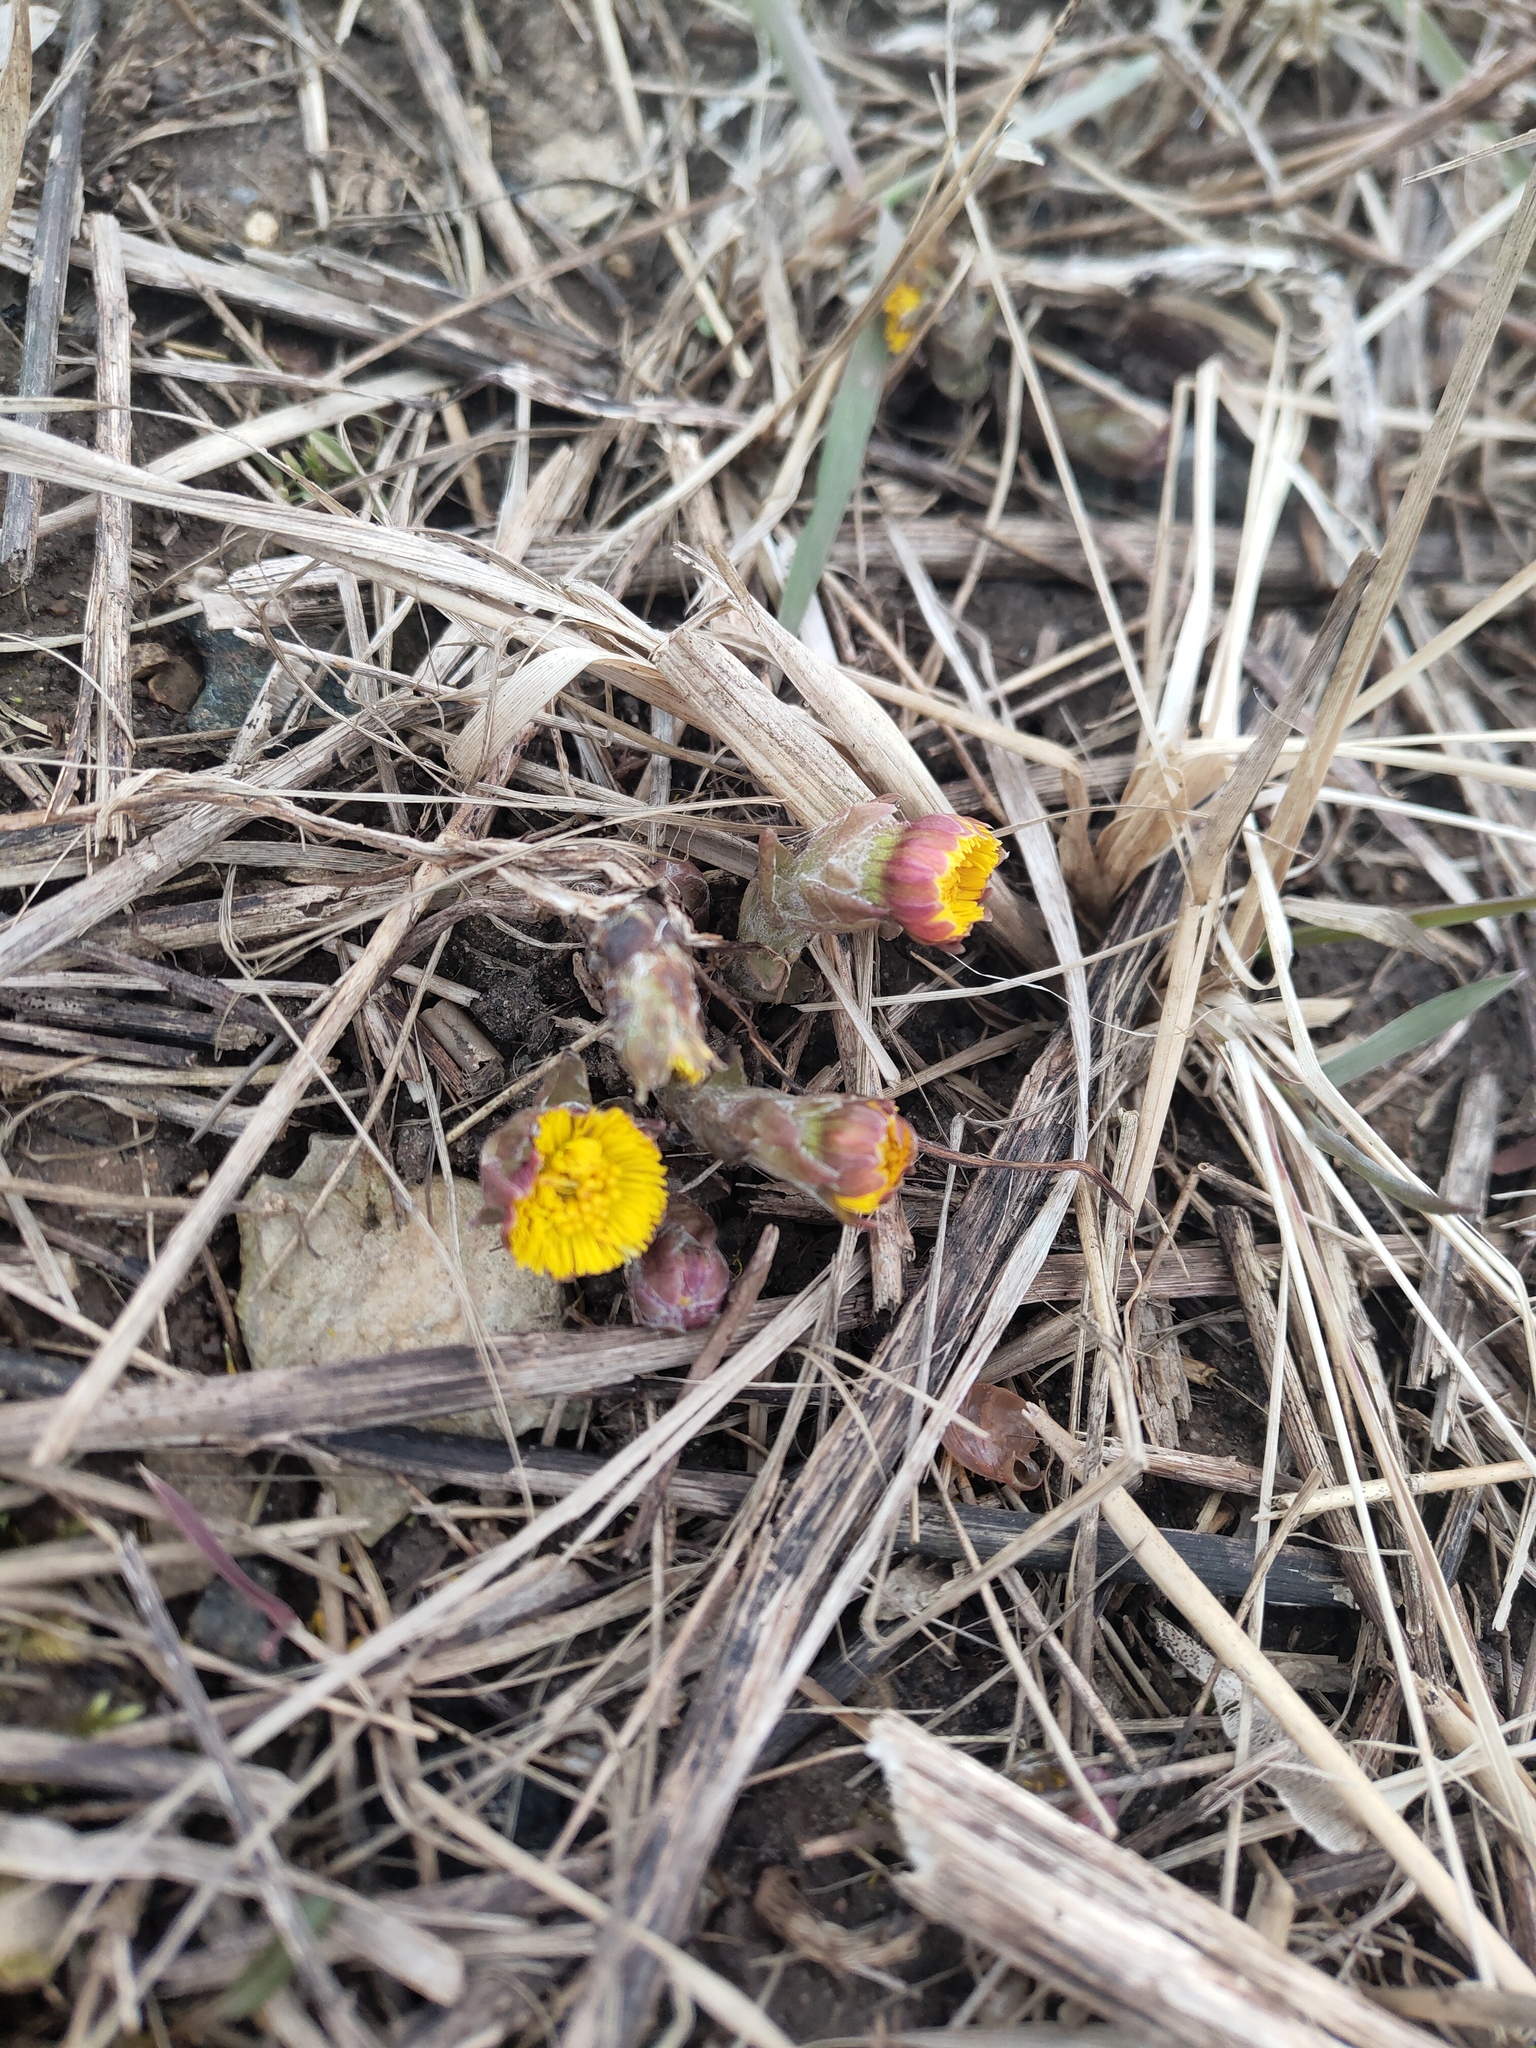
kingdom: Plantae
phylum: Tracheophyta
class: Magnoliopsida
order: Asterales
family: Asteraceae
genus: Tussilago
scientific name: Tussilago farfara
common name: Coltsfoot
